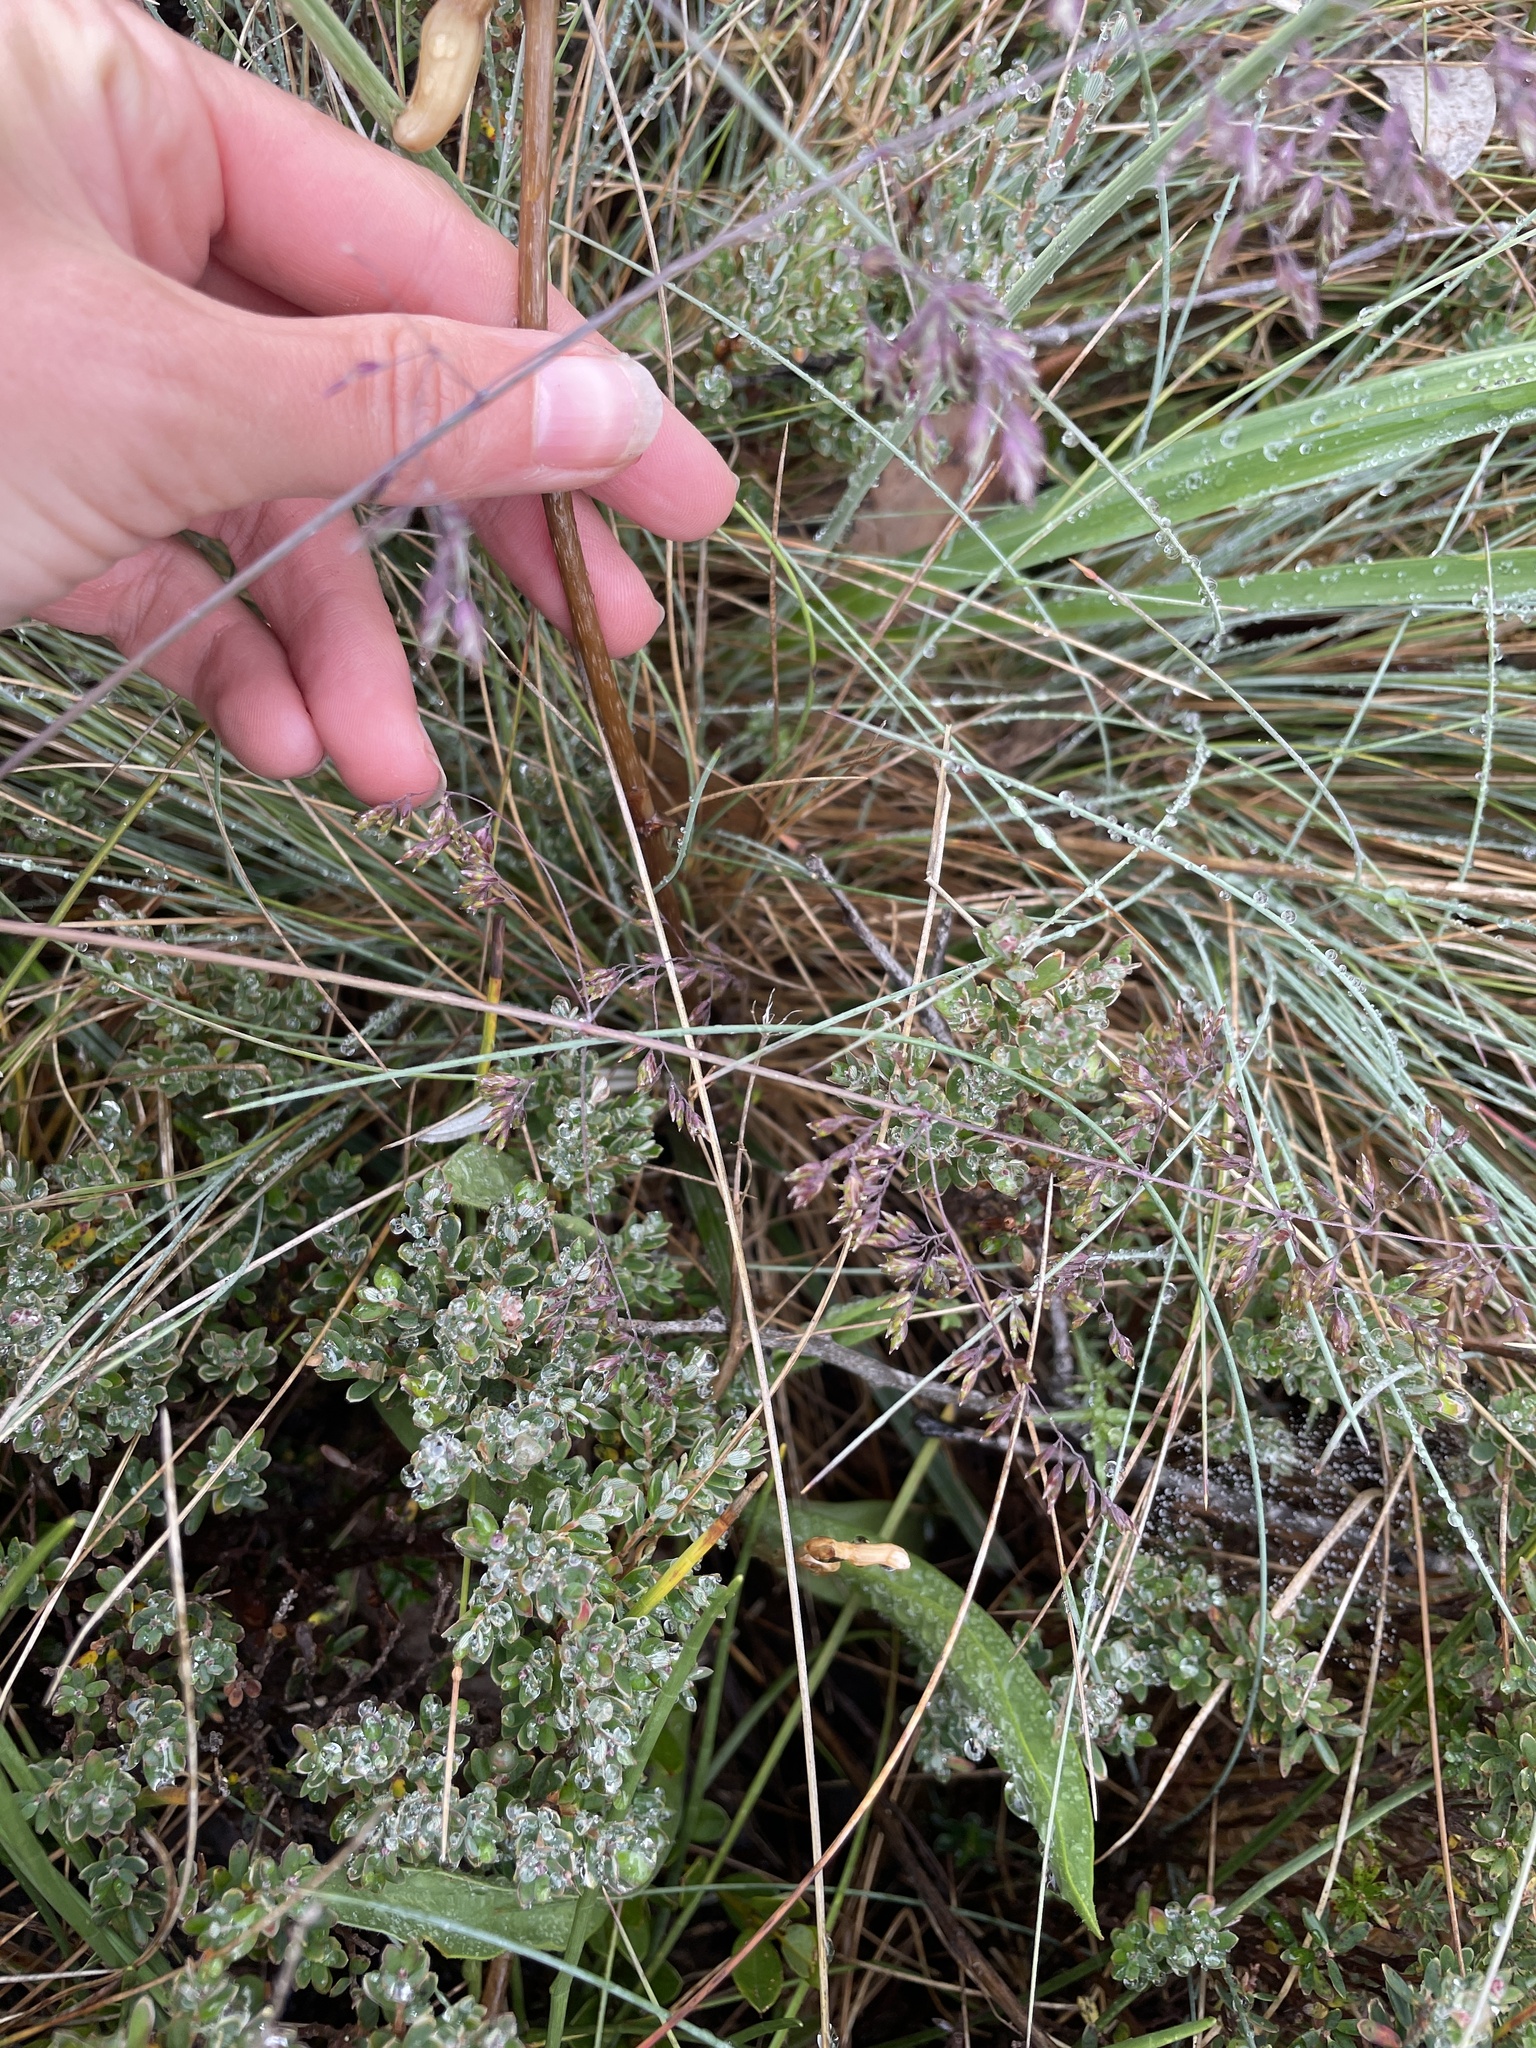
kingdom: Plantae
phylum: Tracheophyta
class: Liliopsida
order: Asparagales
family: Orchidaceae
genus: Gastrodia
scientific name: Gastrodia sesamoides
